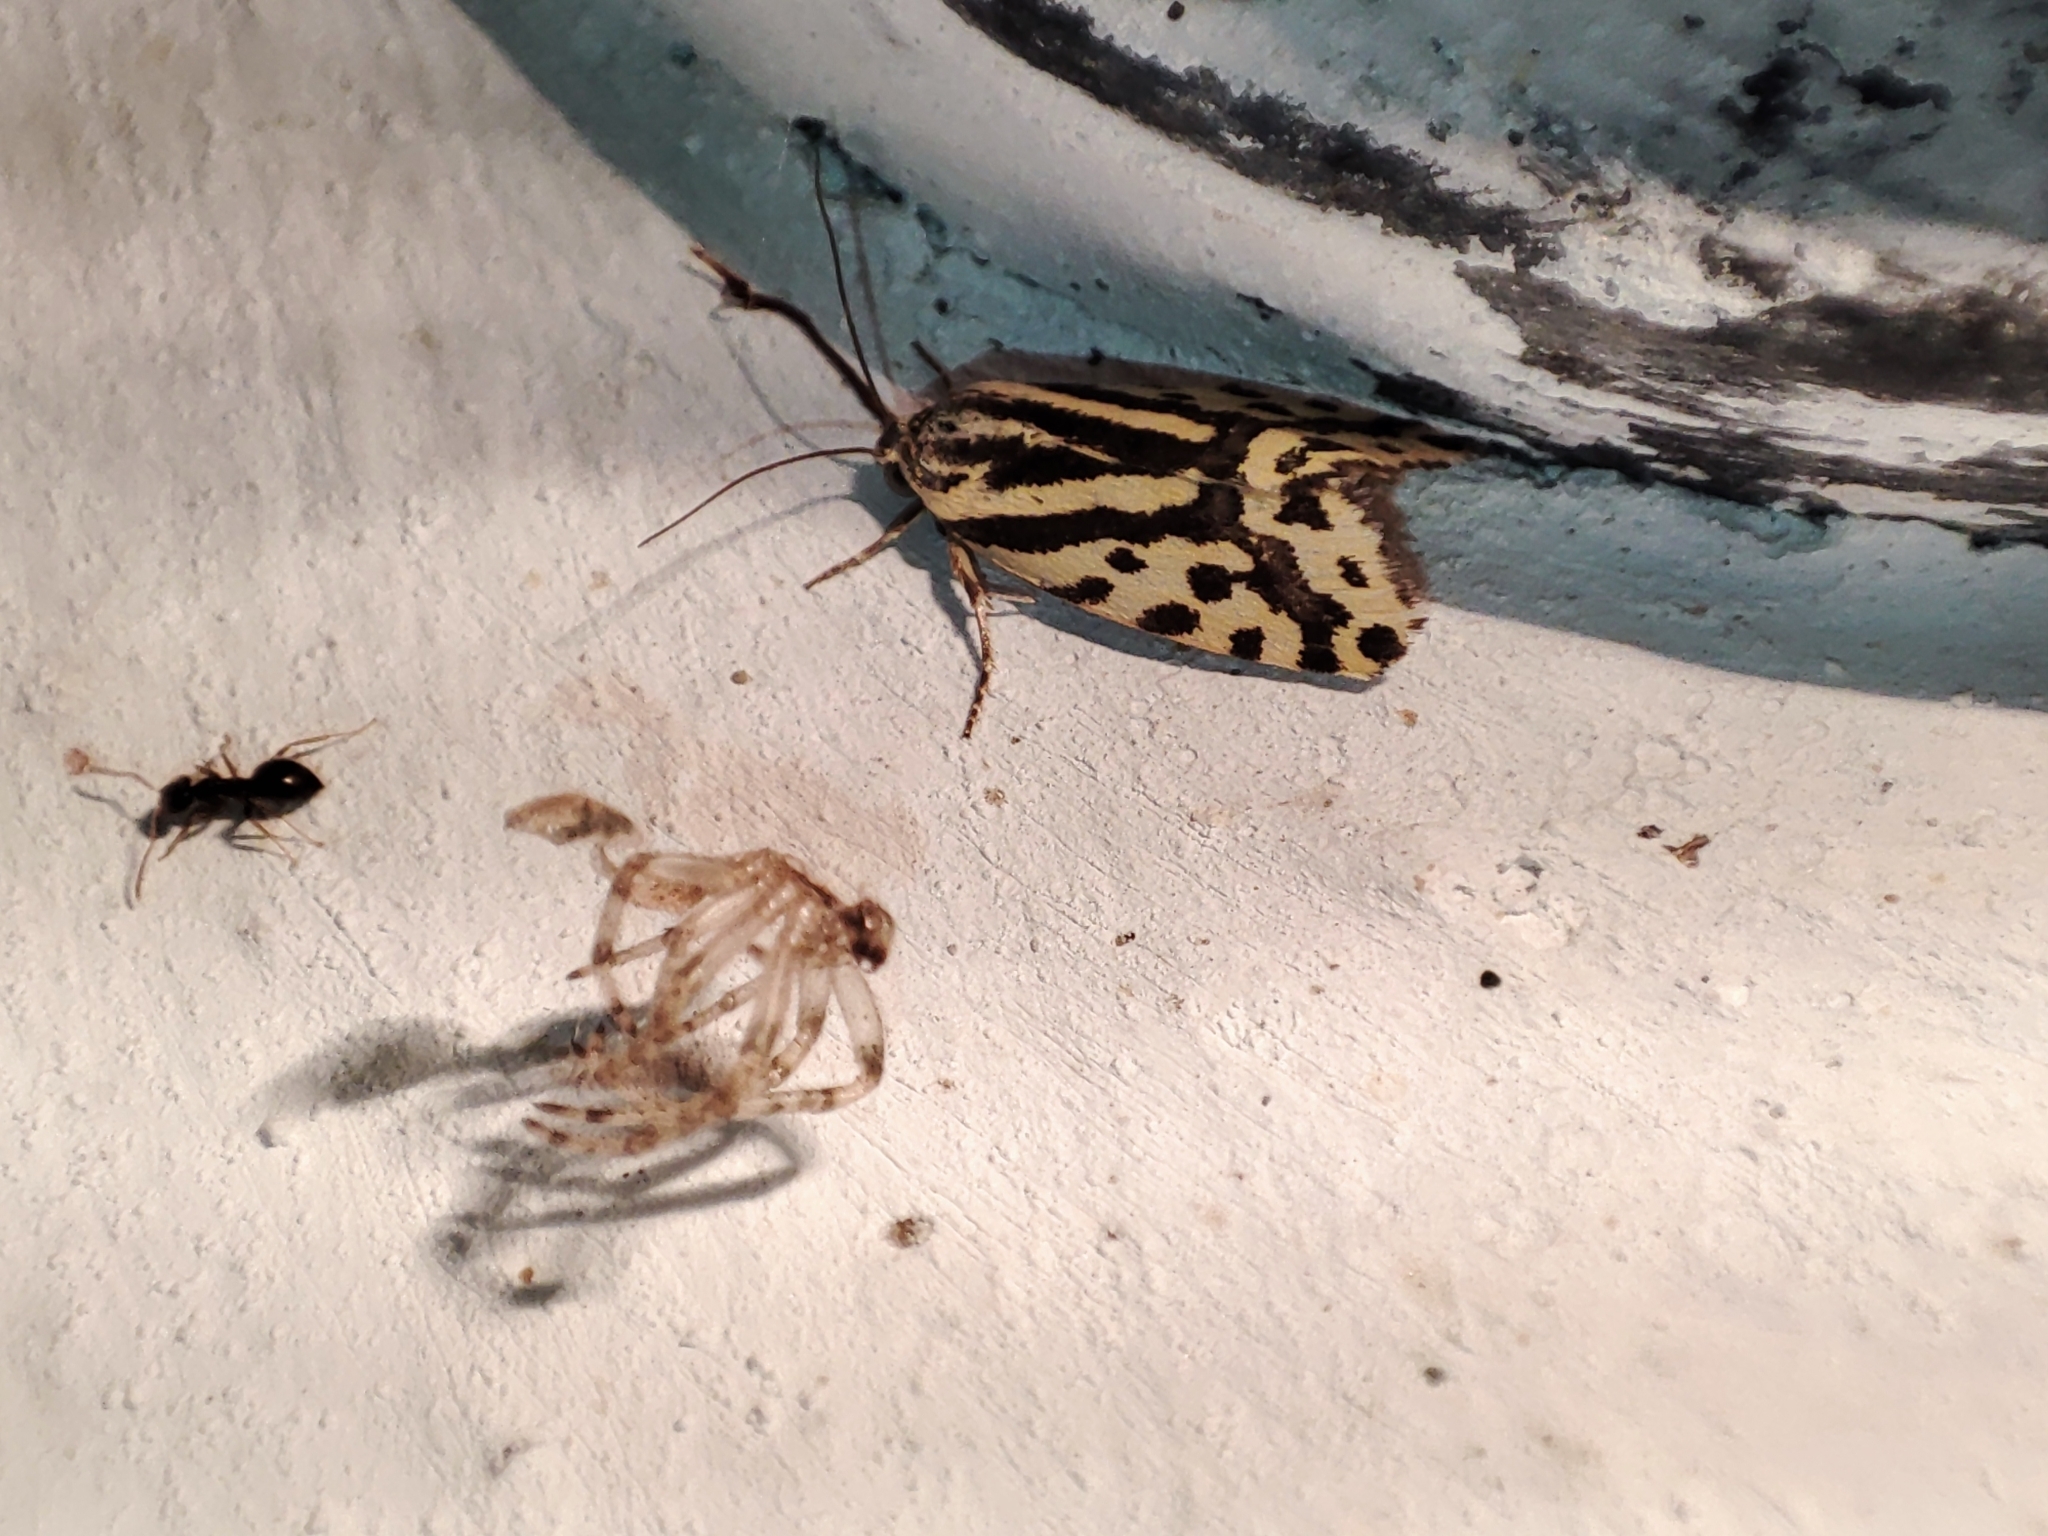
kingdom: Animalia
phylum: Arthropoda
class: Insecta
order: Lepidoptera
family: Noctuidae
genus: Acontia
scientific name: Acontia trabealis
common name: Spotted sulphur
